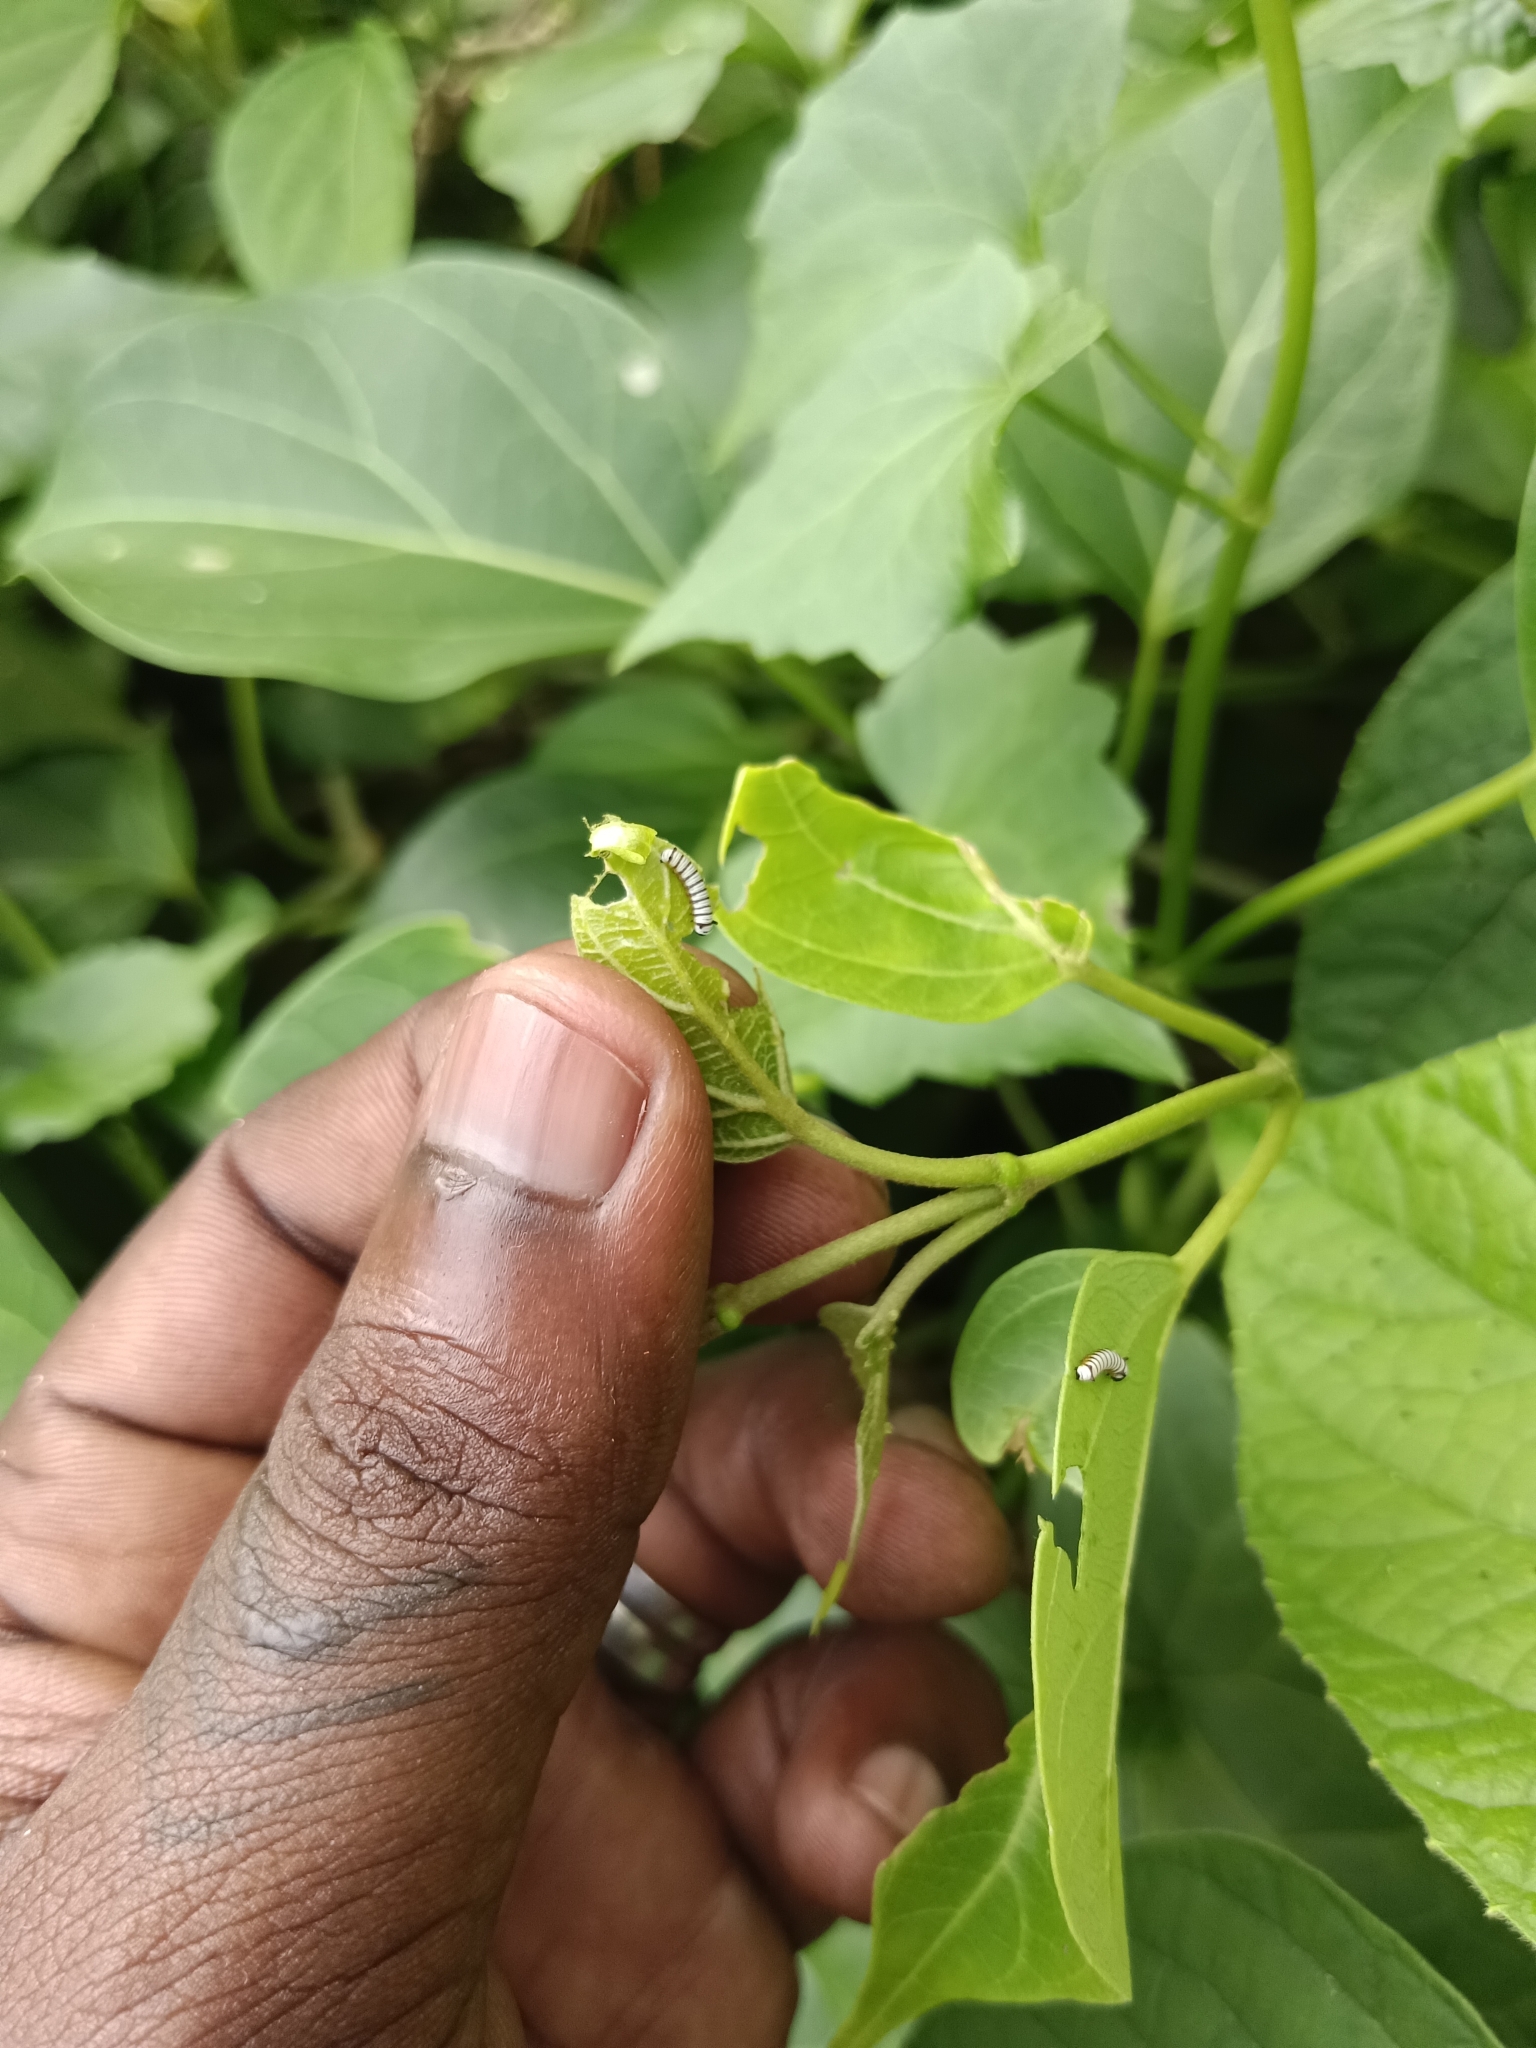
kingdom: Animalia
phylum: Arthropoda
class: Insecta
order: Lepidoptera
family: Nymphalidae
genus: Tirumala
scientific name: Tirumala limniace
